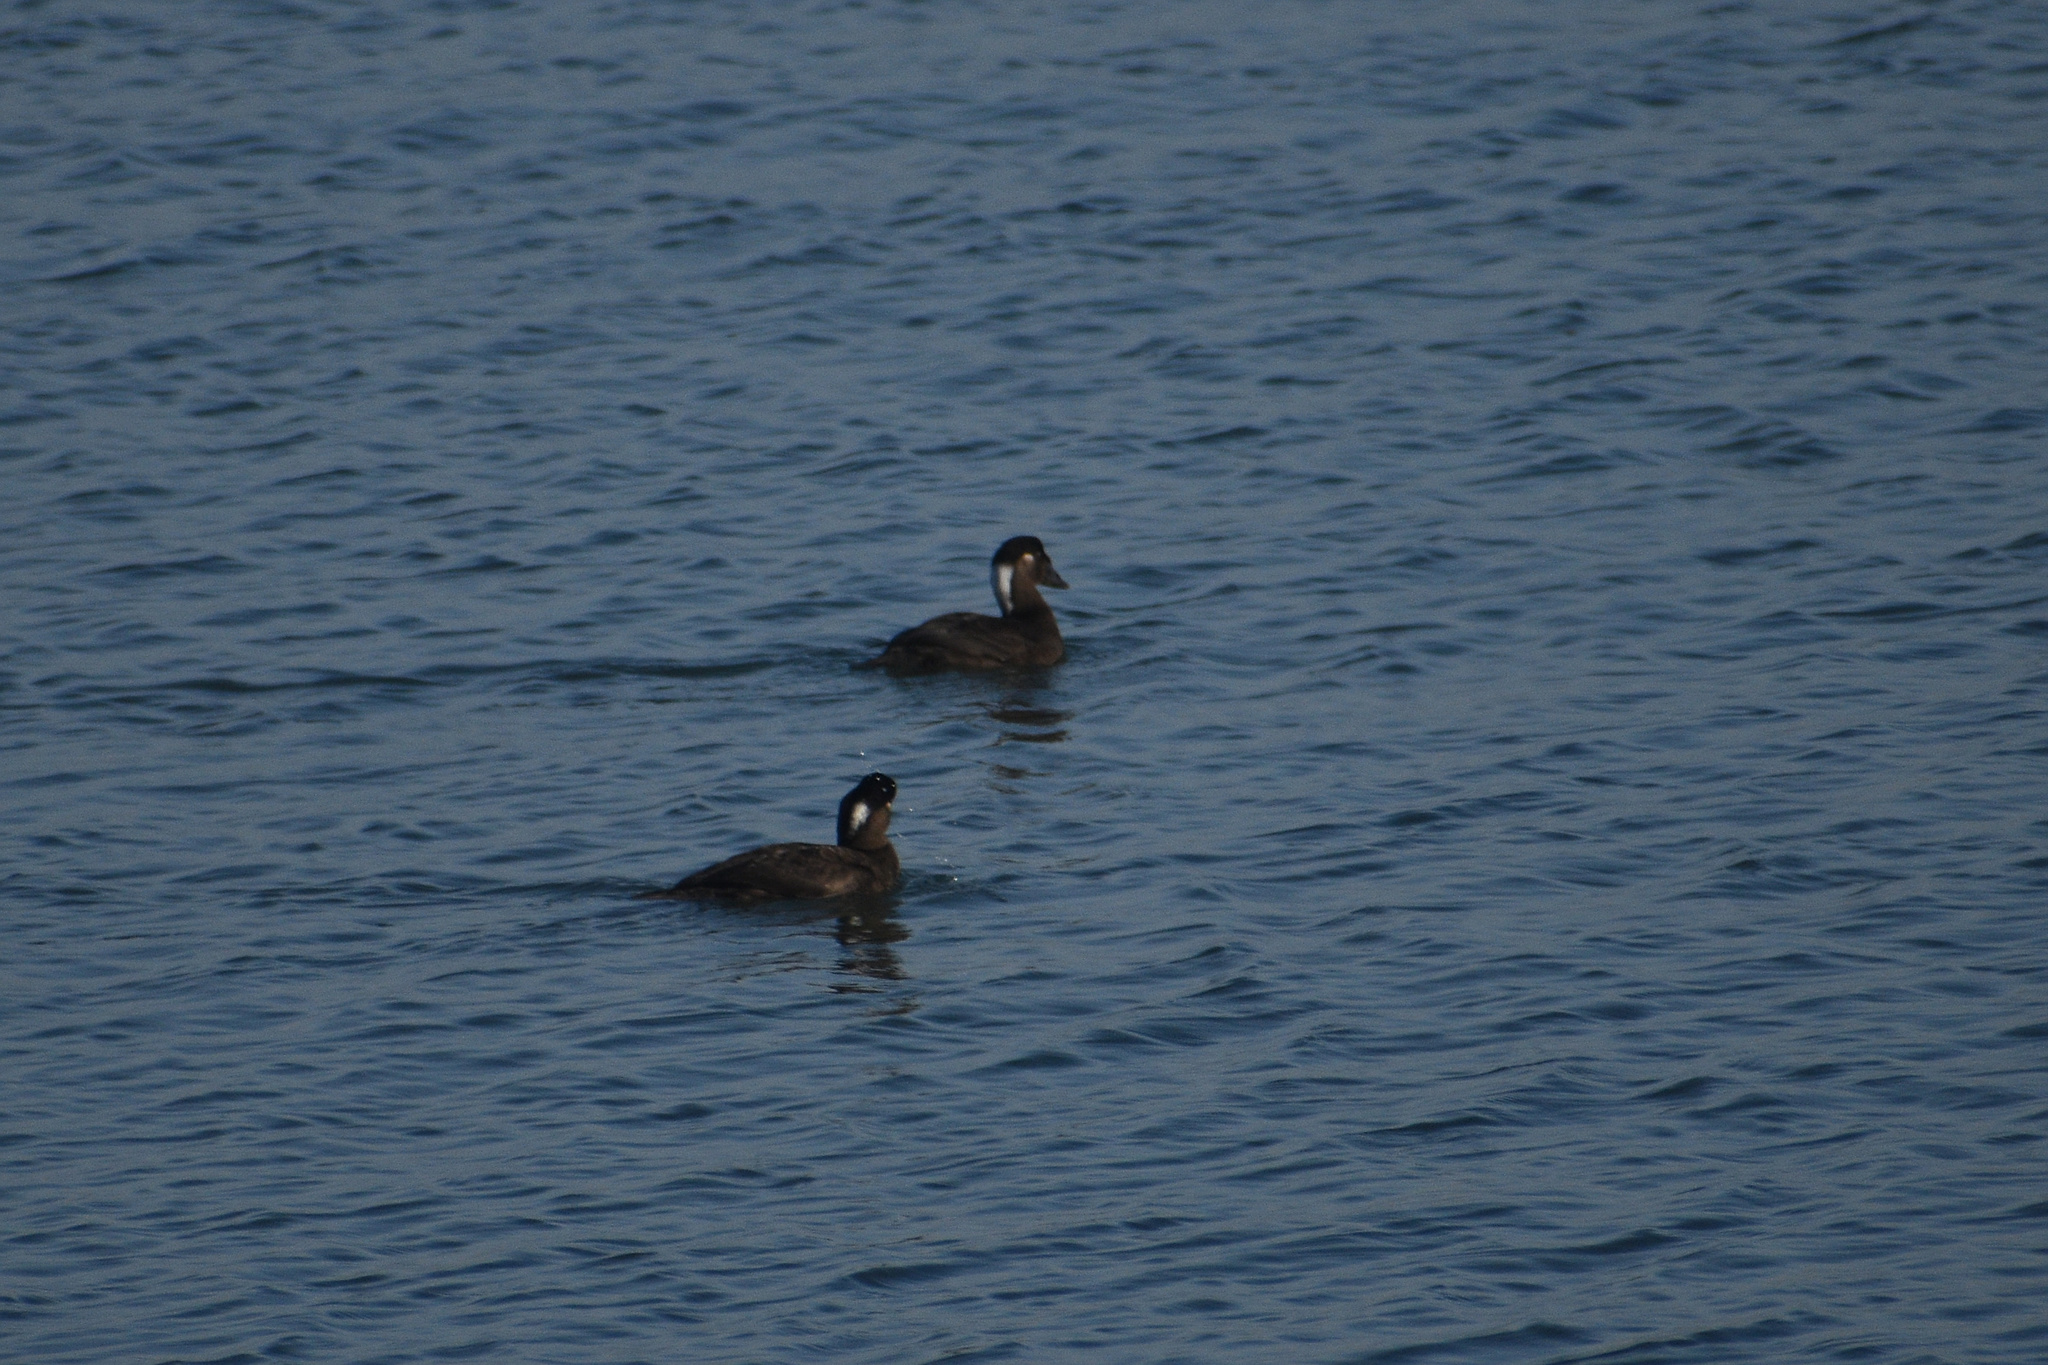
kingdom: Animalia
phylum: Chordata
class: Aves
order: Anseriformes
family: Anatidae
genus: Melanitta
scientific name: Melanitta perspicillata
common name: Surf scoter
